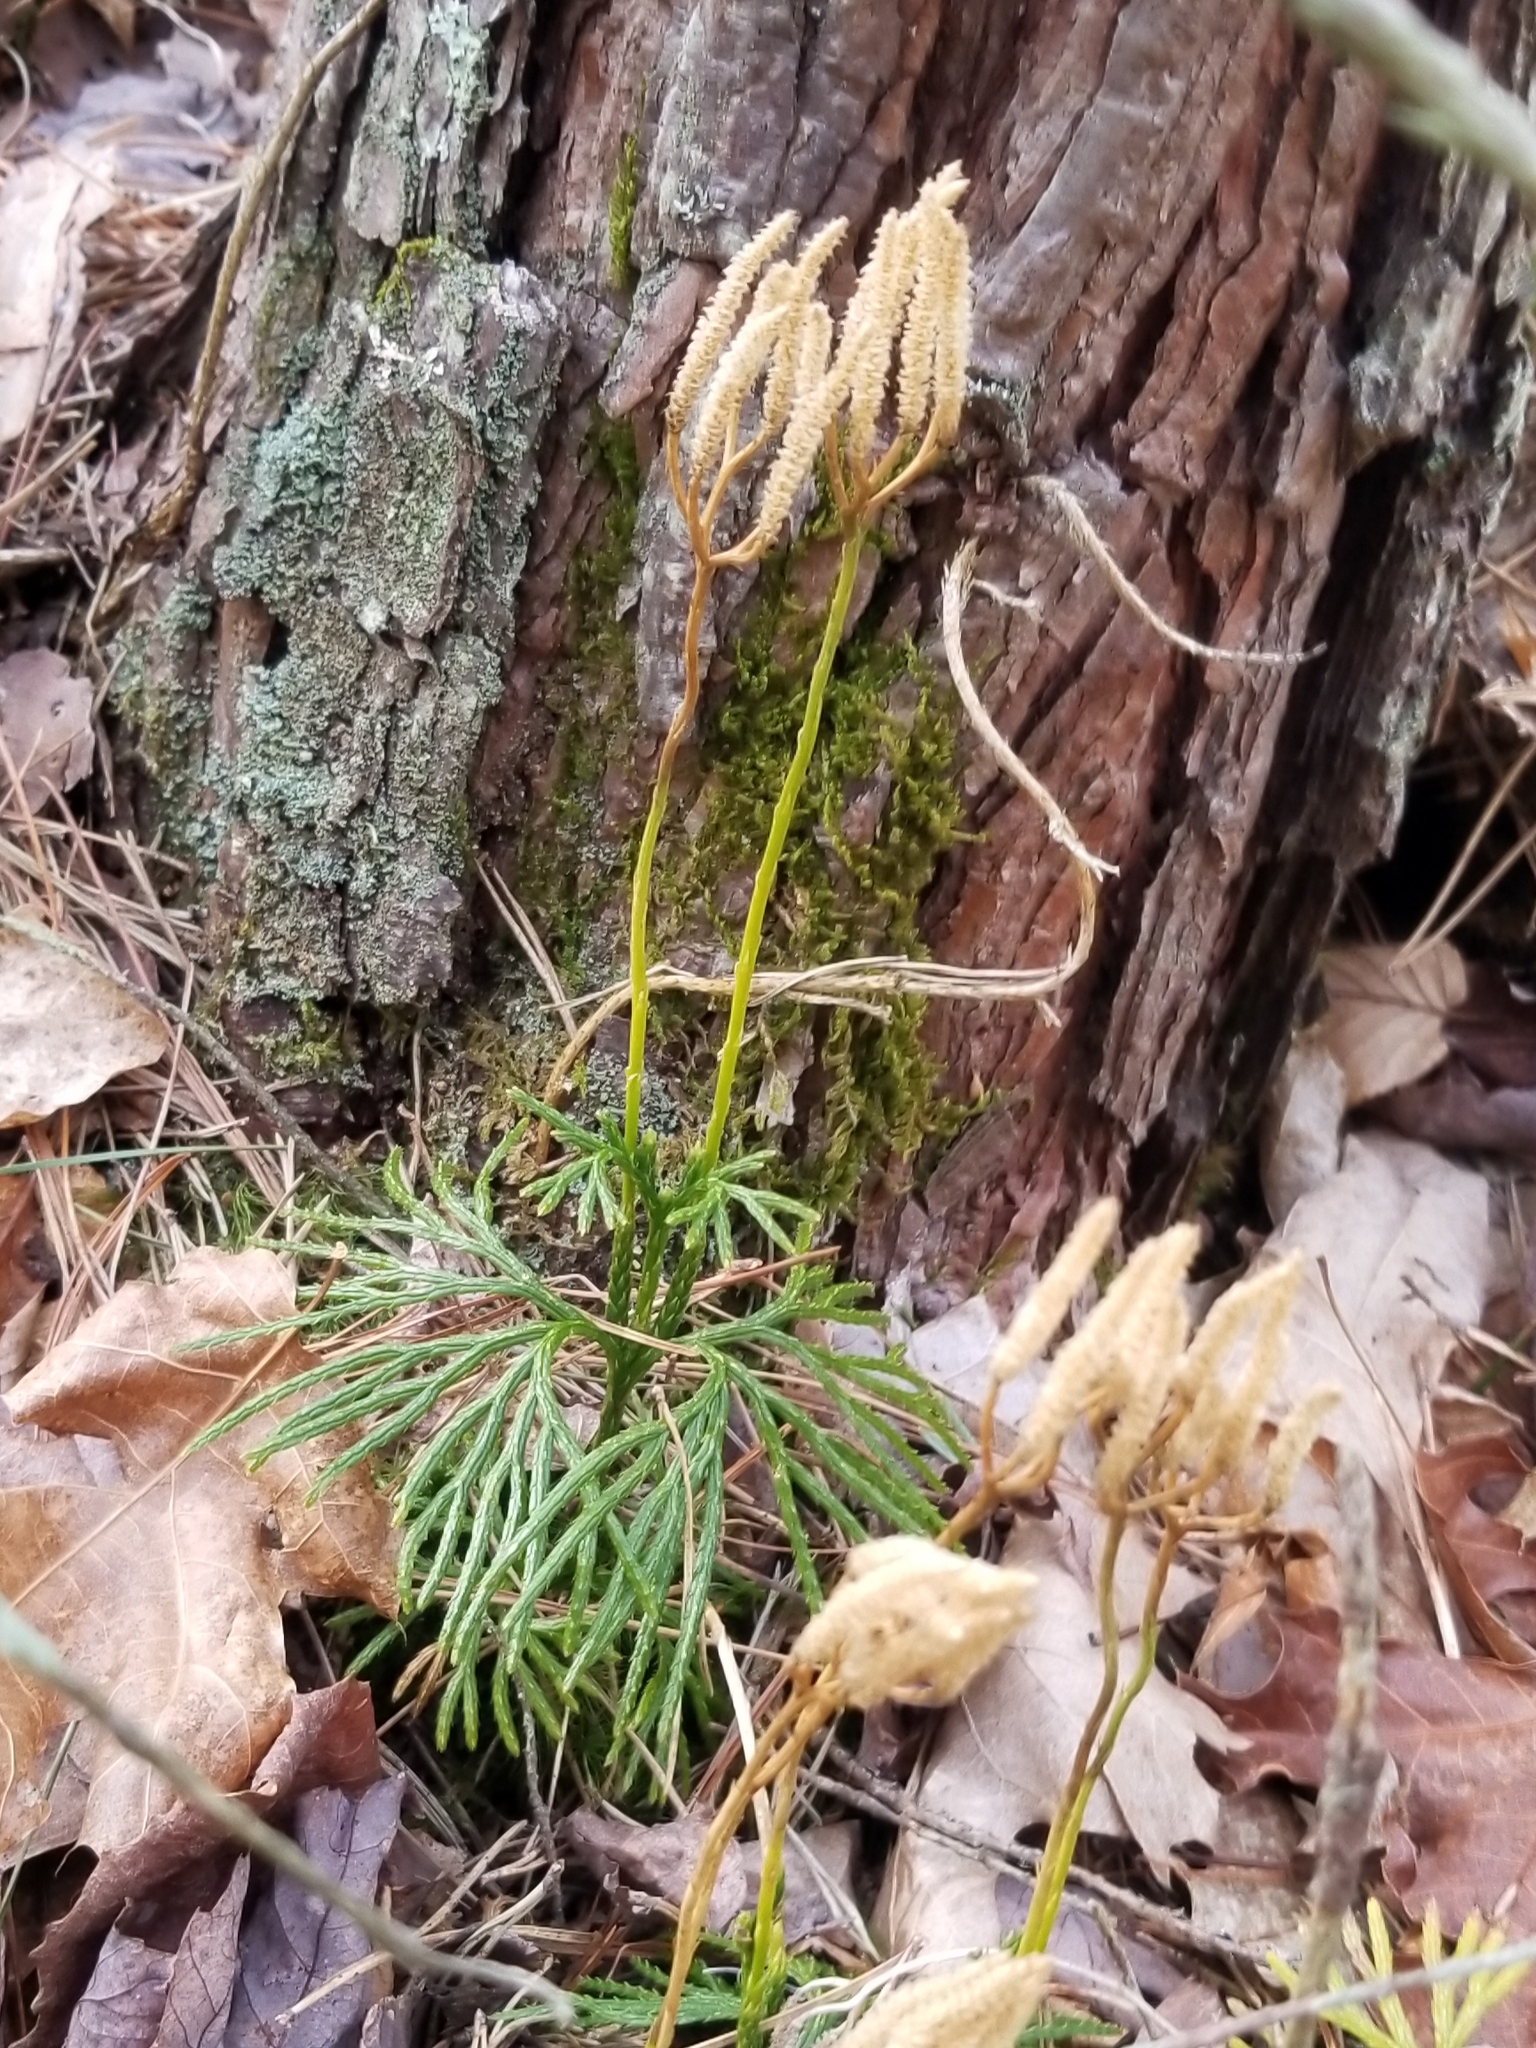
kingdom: Plantae
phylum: Tracheophyta
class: Lycopodiopsida
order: Lycopodiales
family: Lycopodiaceae
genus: Diphasiastrum
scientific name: Diphasiastrum digitatum
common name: Southern running-pine
